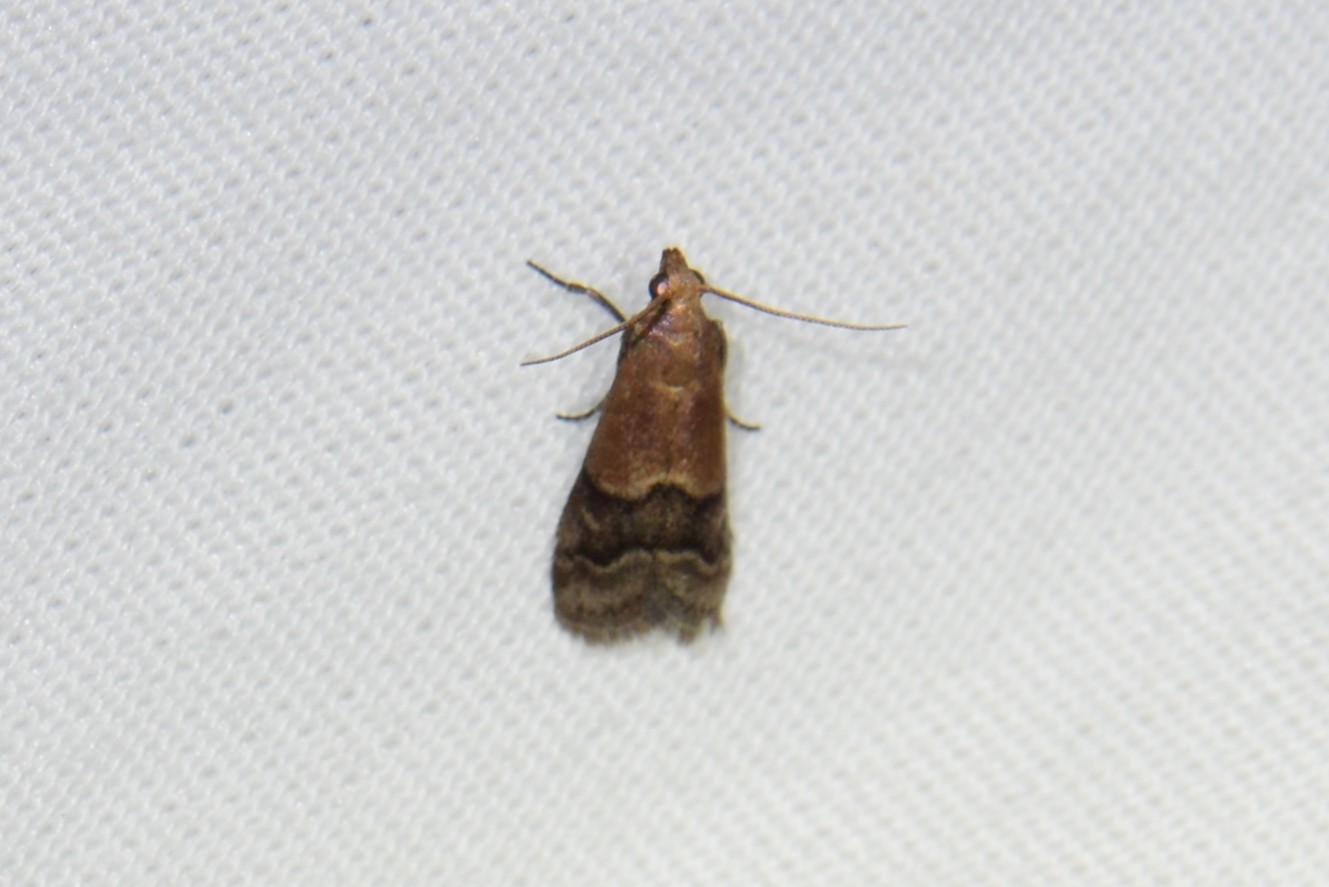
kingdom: Animalia
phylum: Arthropoda
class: Insecta
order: Lepidoptera
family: Pyralidae
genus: Eulogia
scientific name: Eulogia ochrifrontella
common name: Broad-banded eulogia moth
